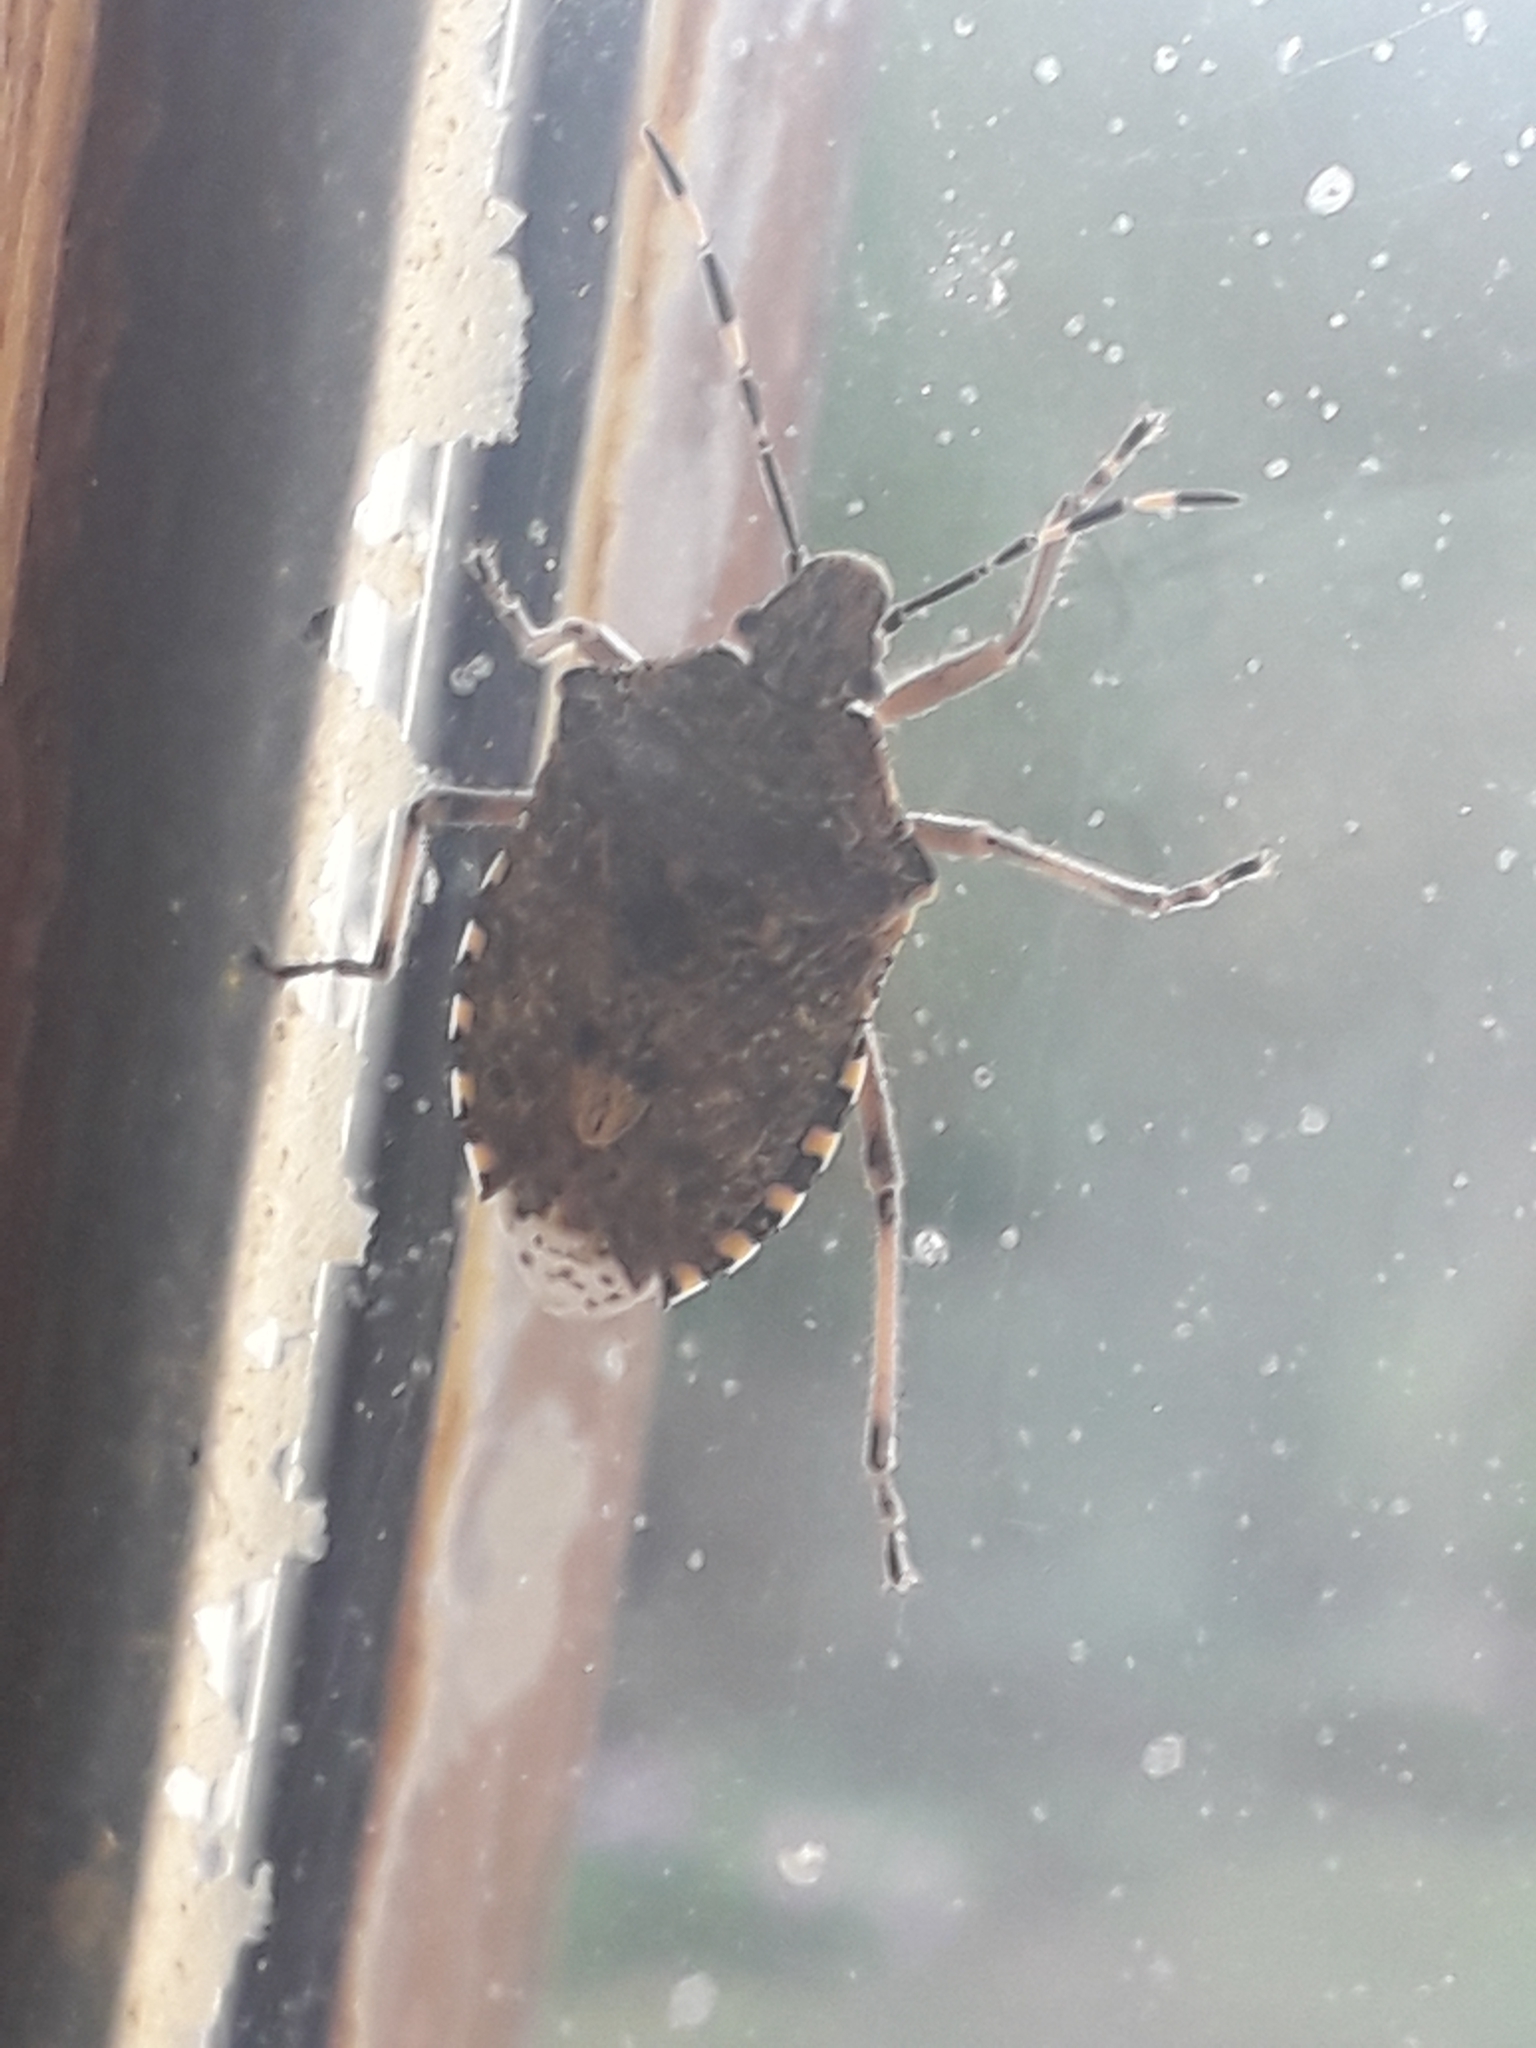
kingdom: Animalia
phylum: Arthropoda
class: Insecta
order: Hemiptera
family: Pentatomidae
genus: Rhaphigaster
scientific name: Rhaphigaster nebulosa
